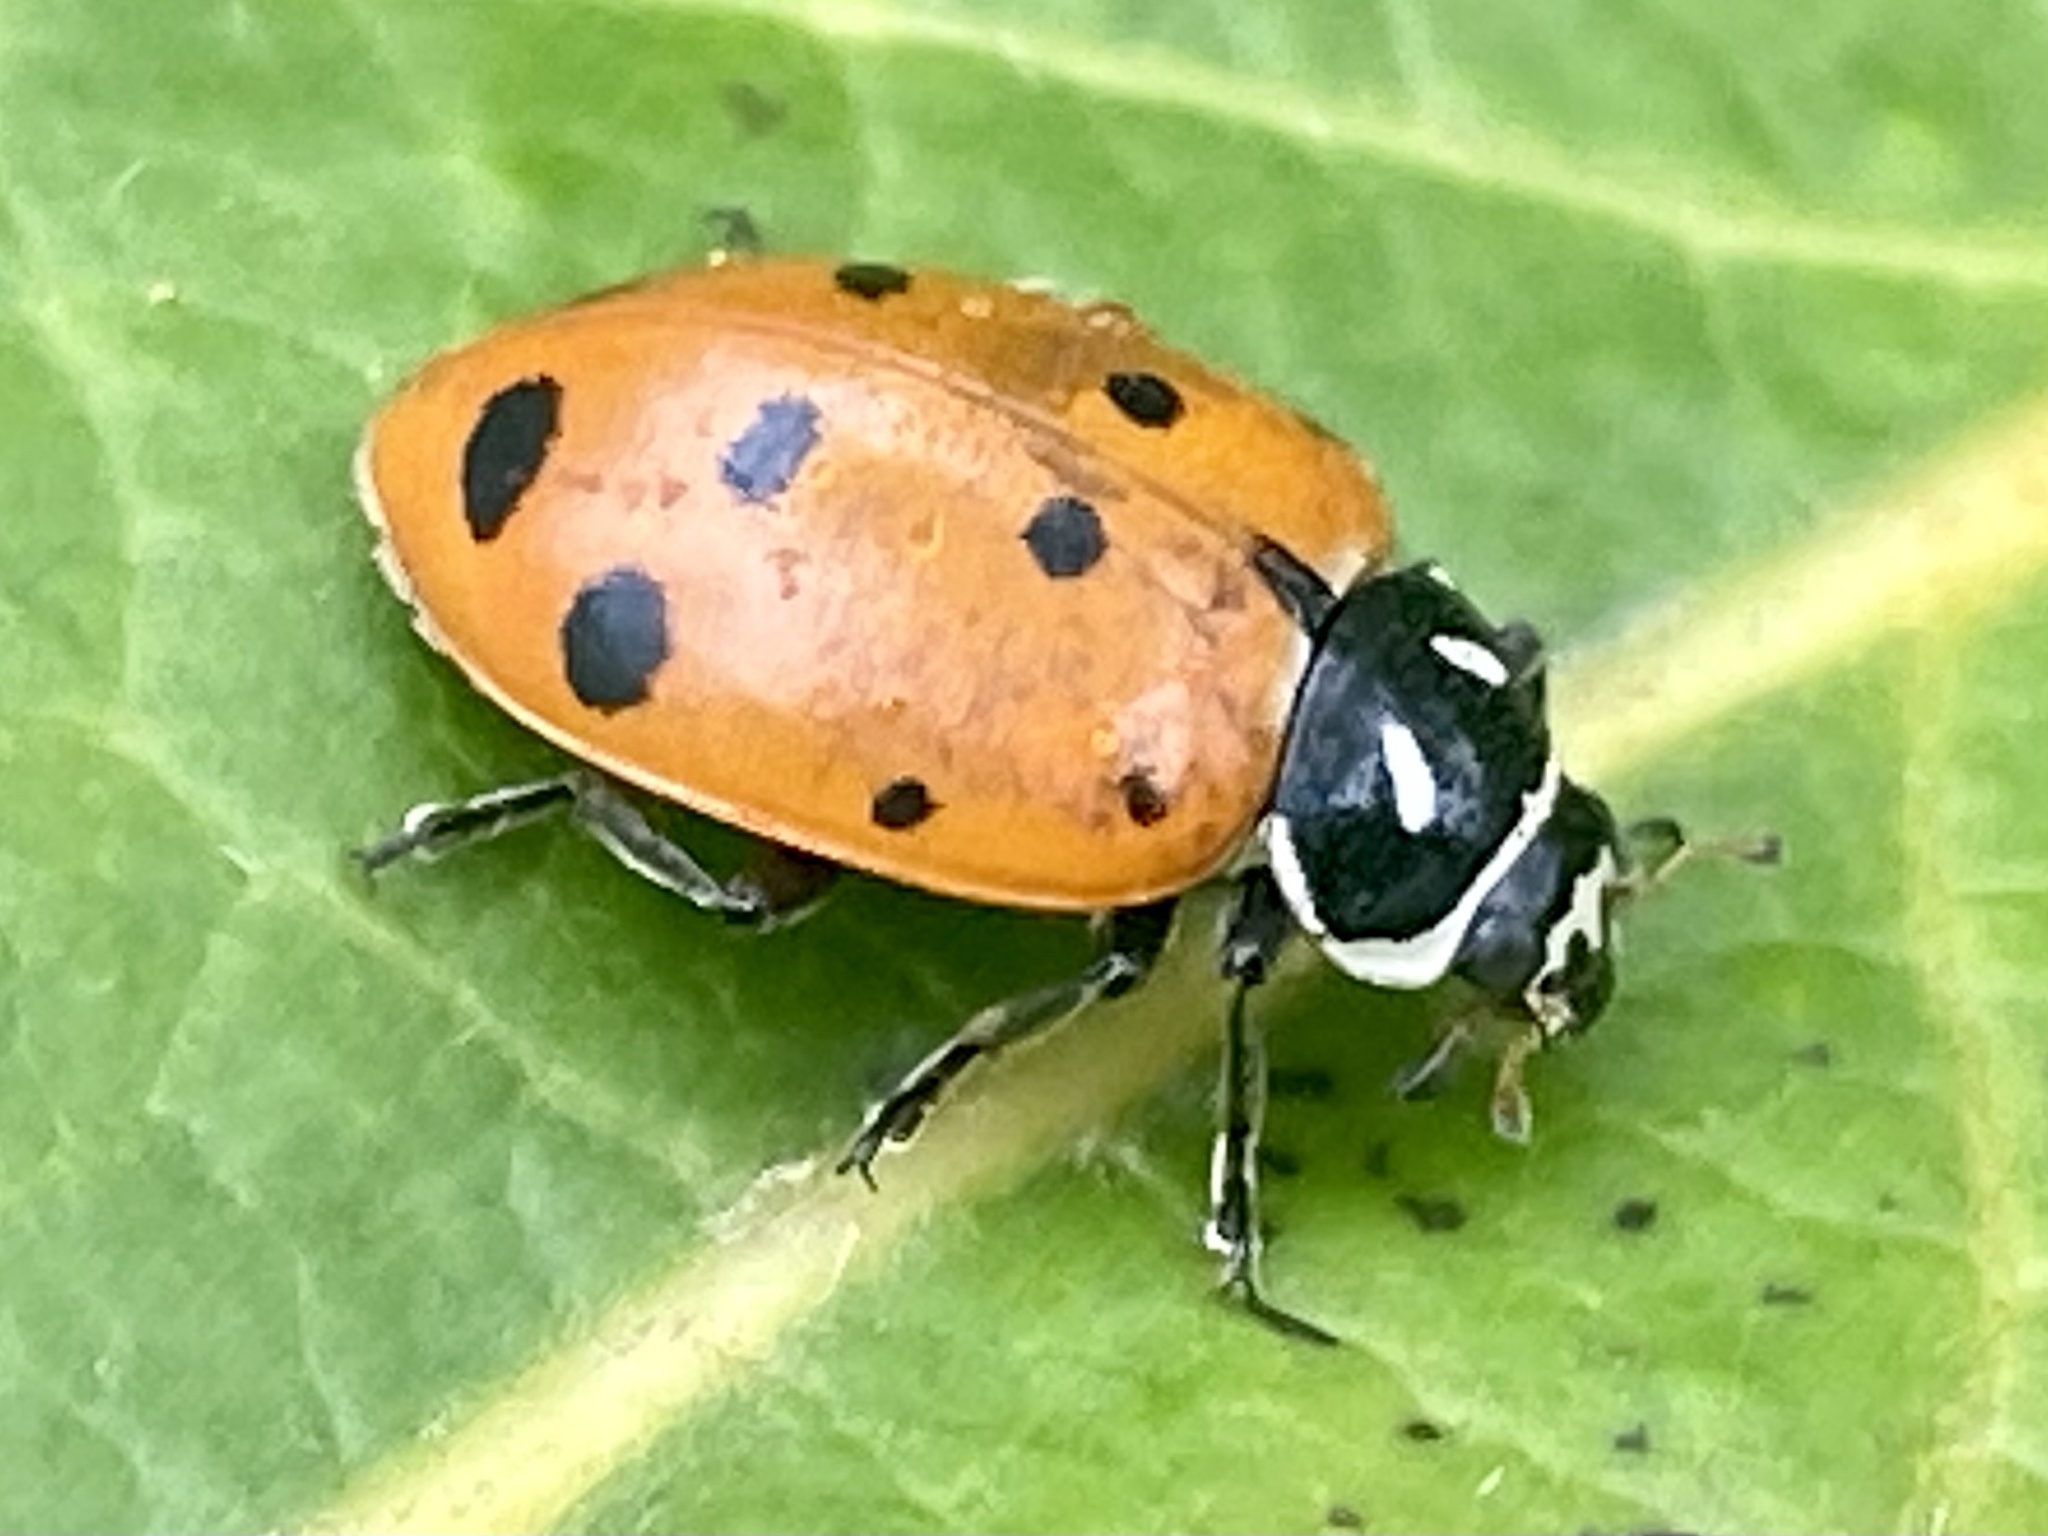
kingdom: Animalia
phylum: Arthropoda
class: Insecta
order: Coleoptera
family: Coccinellidae
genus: Hippodamia
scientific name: Hippodamia convergens
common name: Convergent lady beetle
